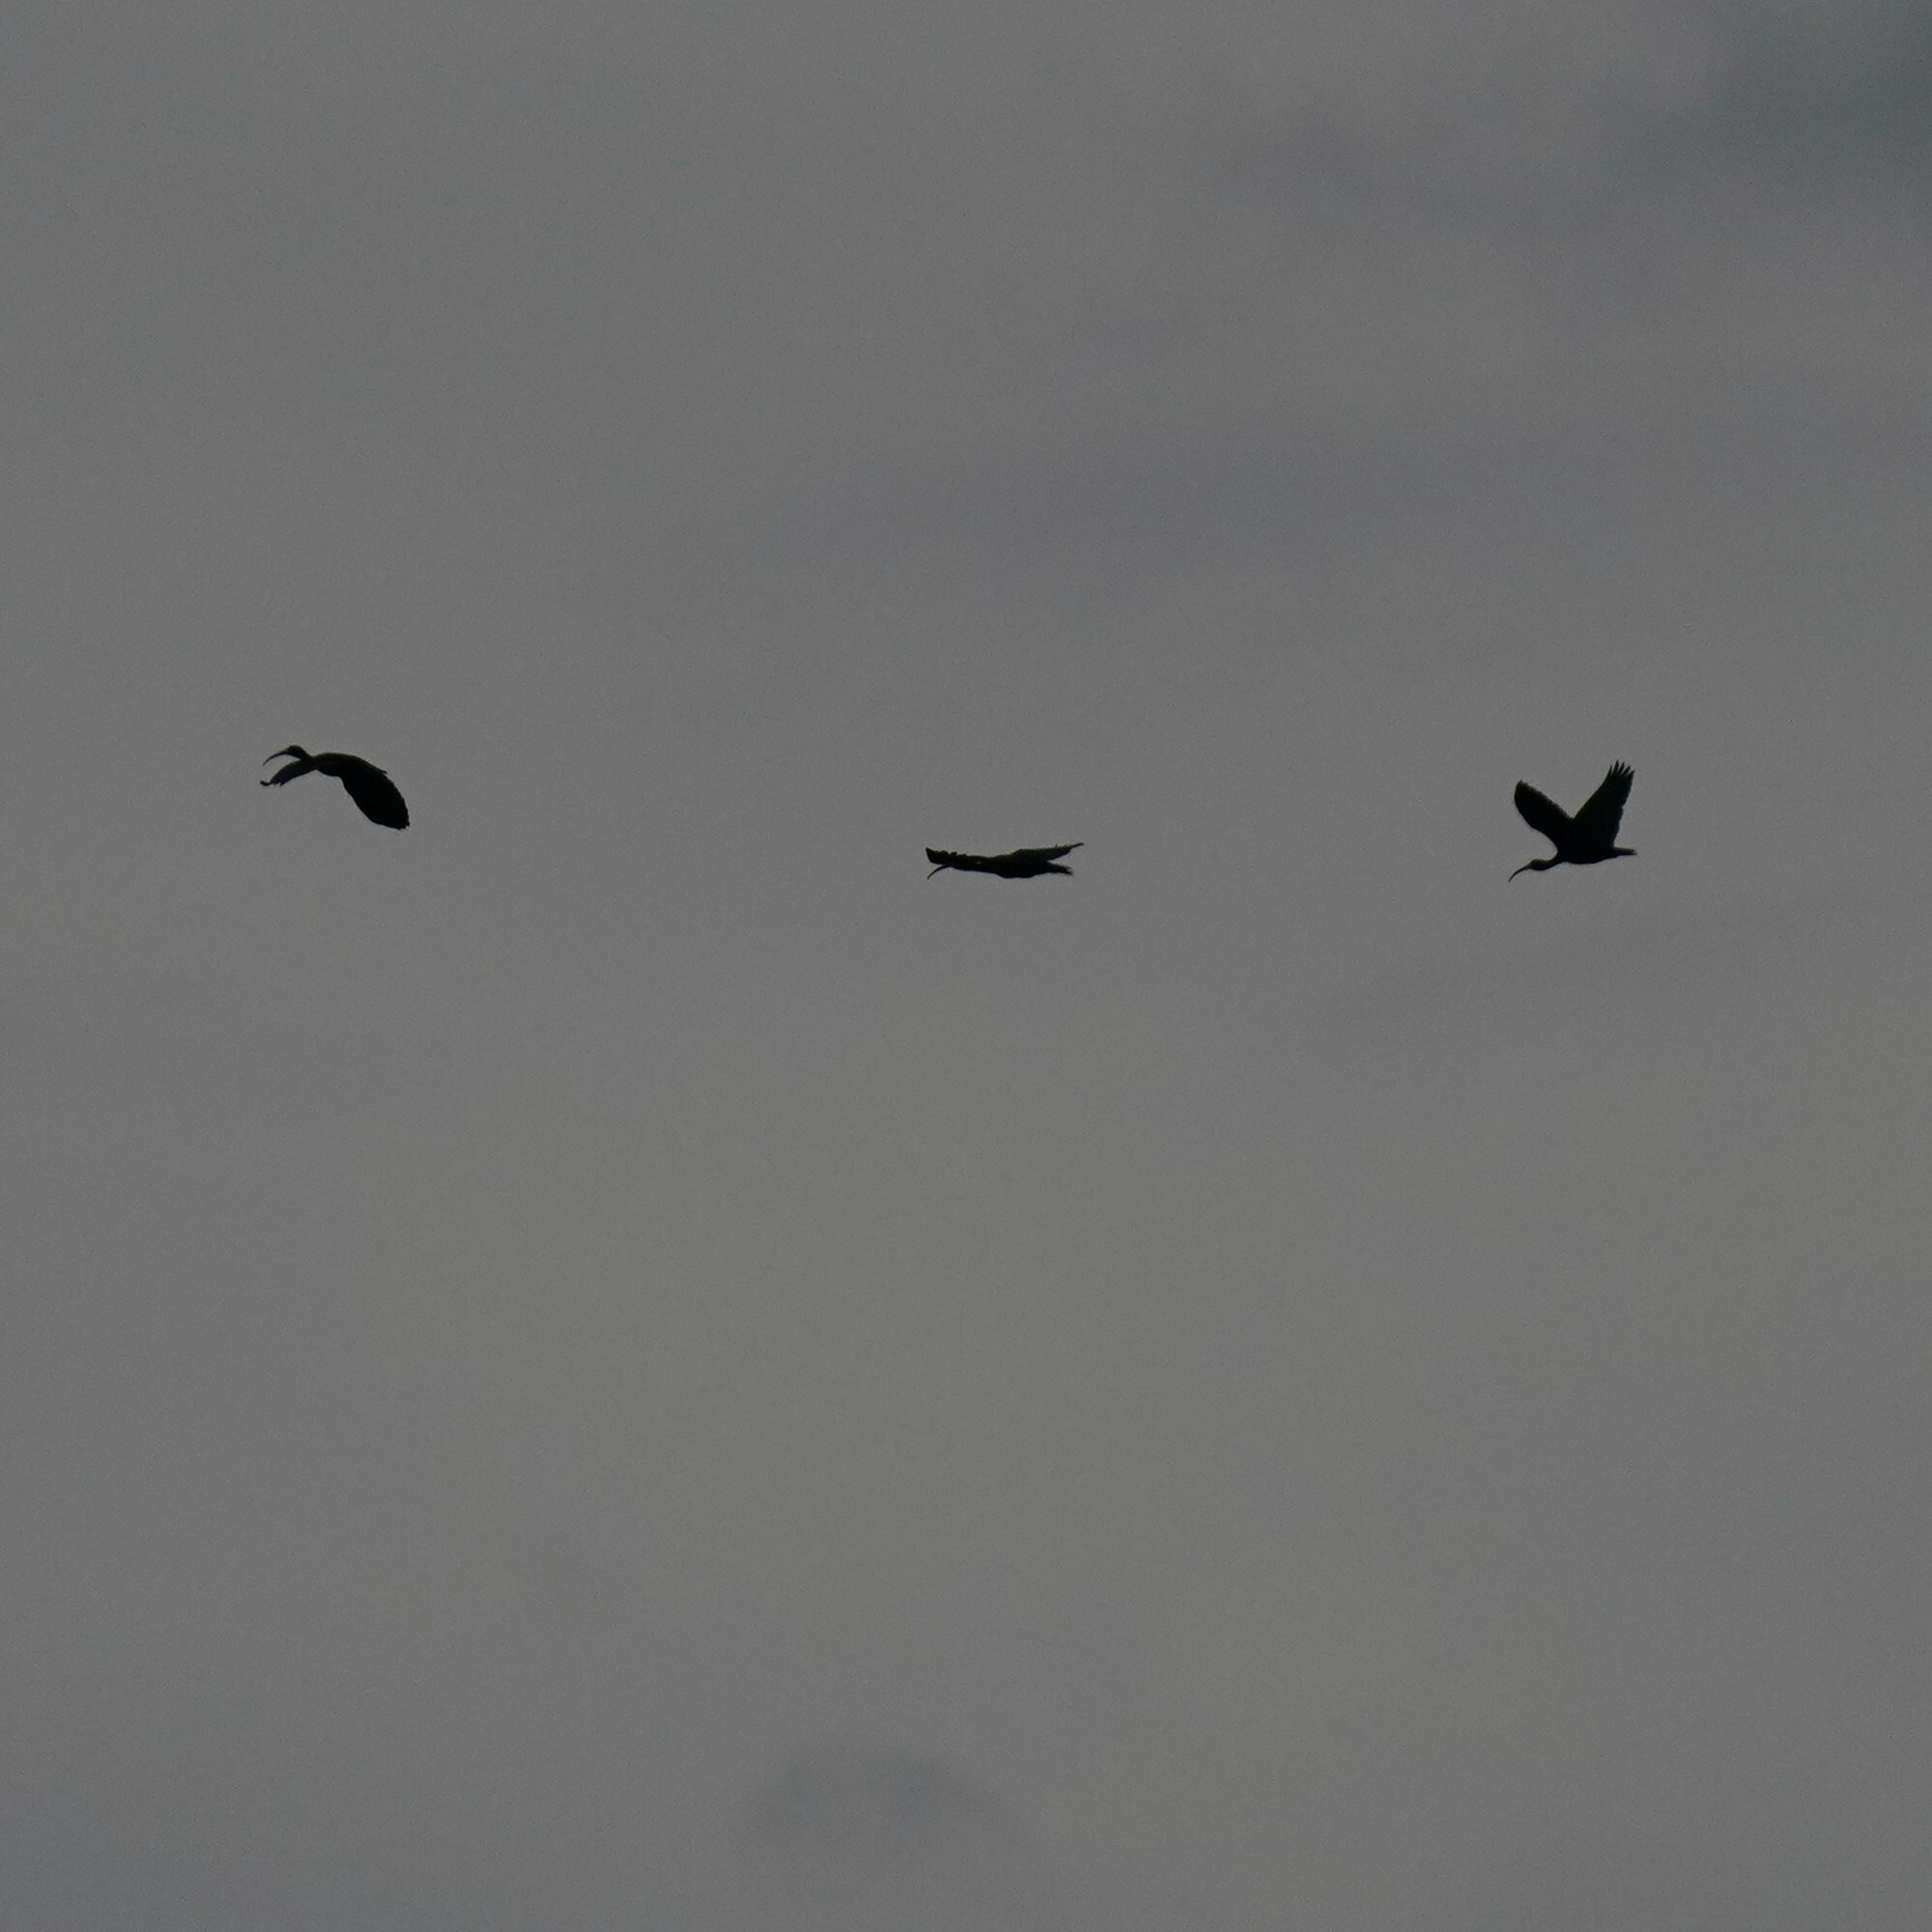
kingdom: Animalia
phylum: Chordata
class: Aves
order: Pelecaniformes
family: Threskiornithidae
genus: Phimosus
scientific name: Phimosus infuscatus
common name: Bare-faced ibis
